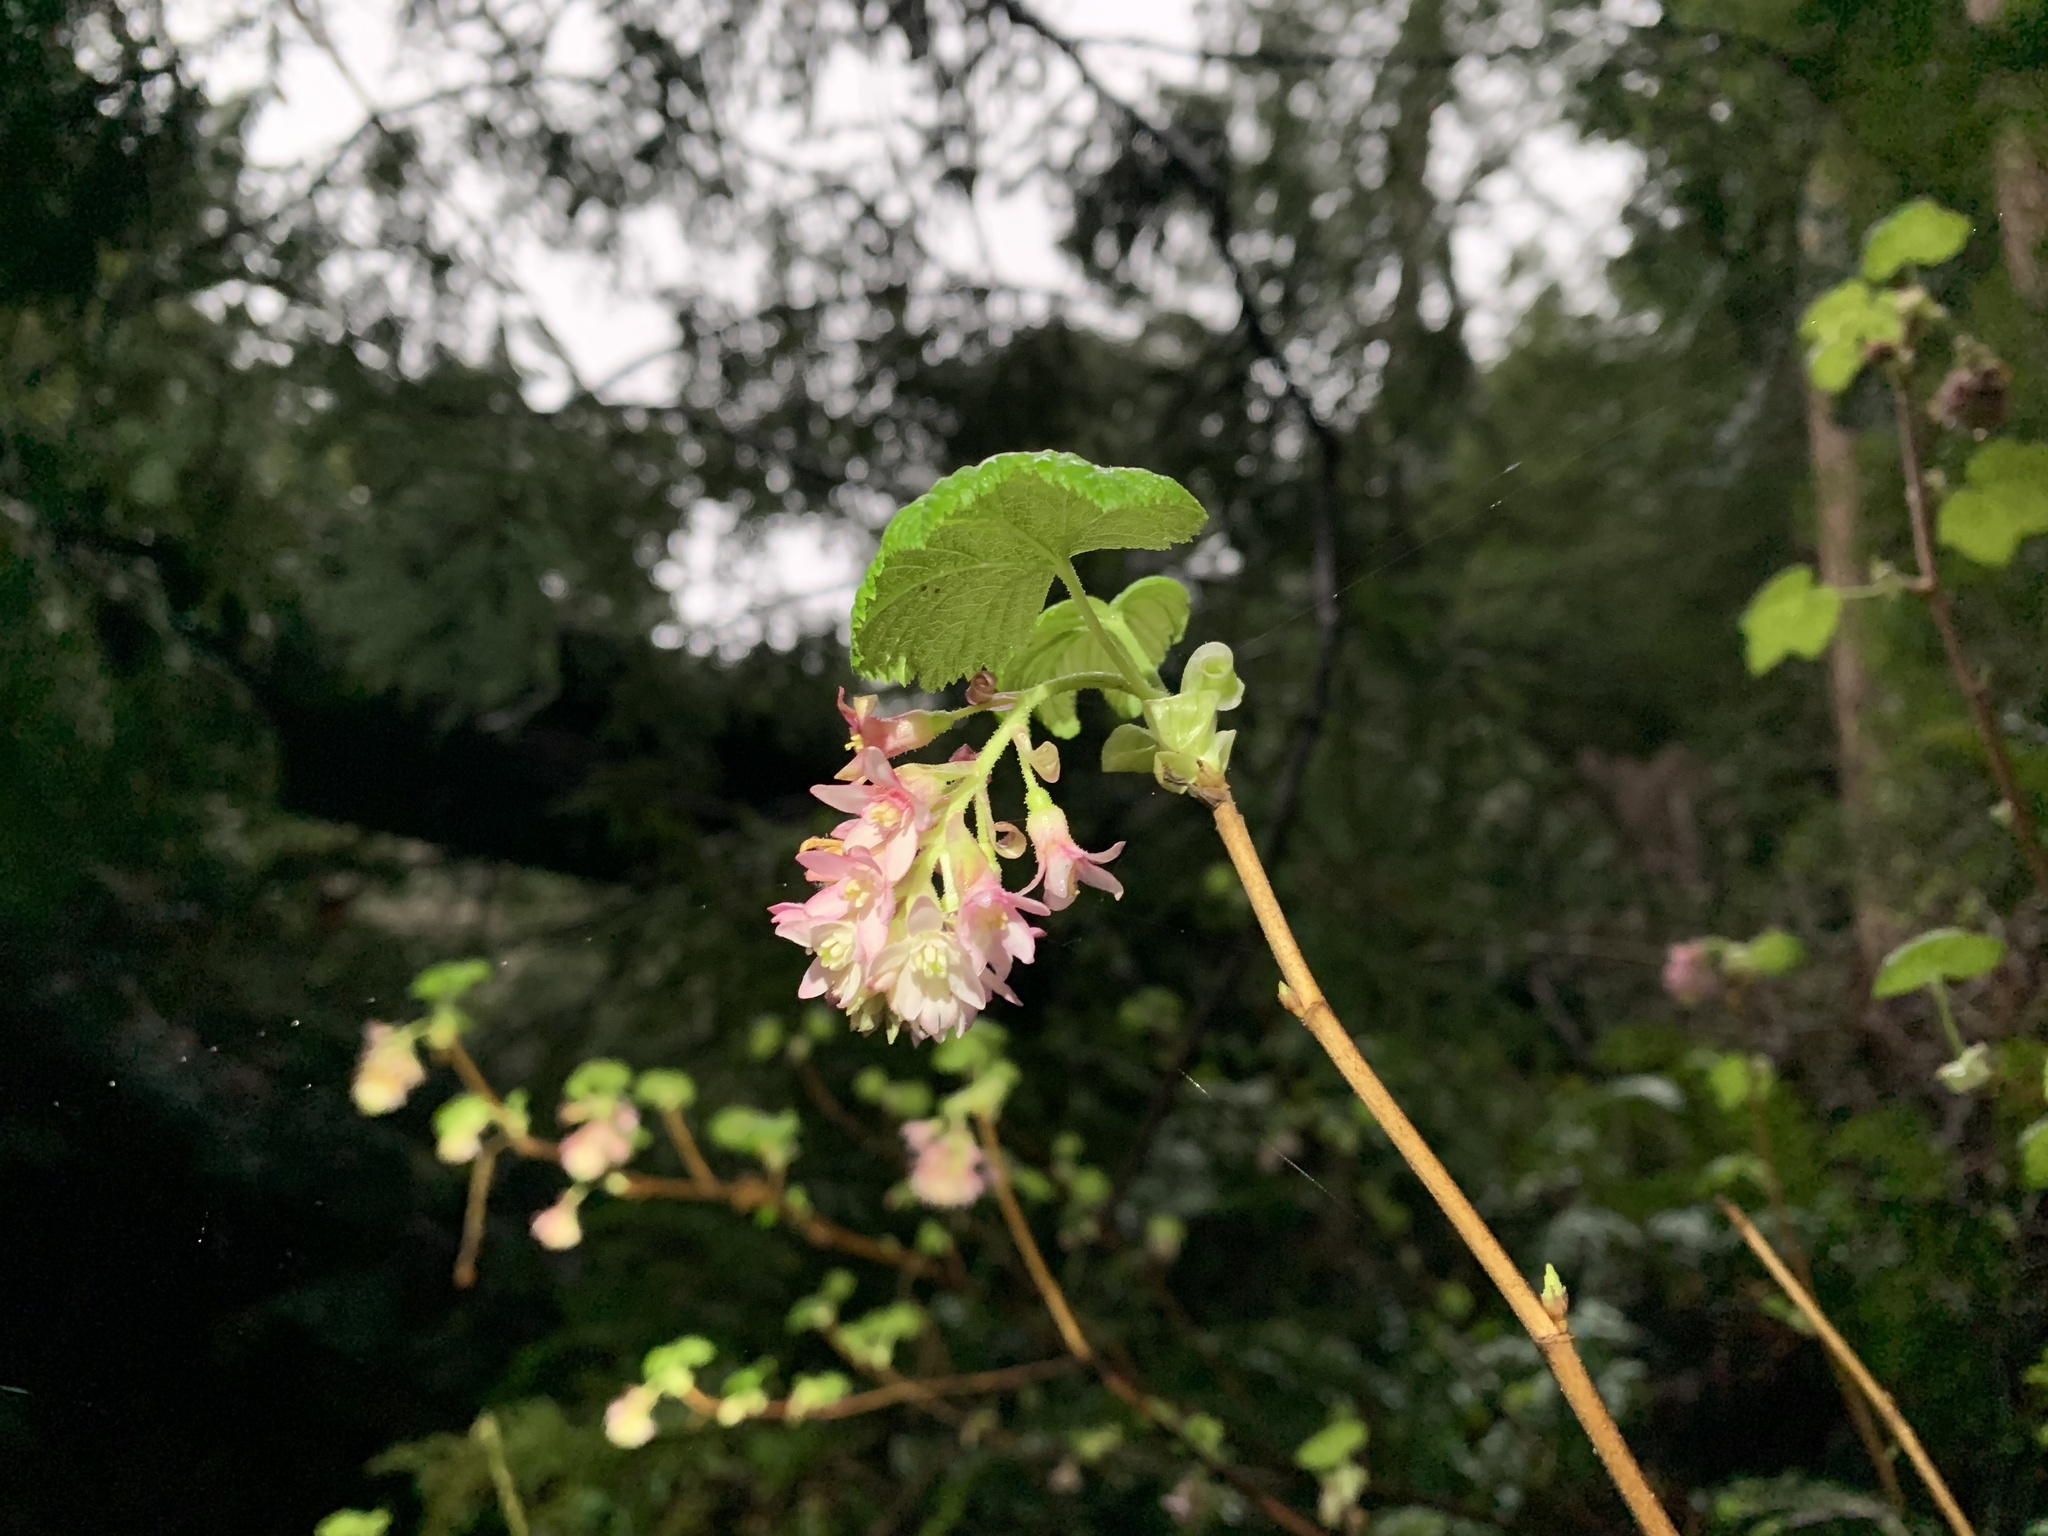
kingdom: Plantae
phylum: Tracheophyta
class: Magnoliopsida
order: Saxifragales
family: Grossulariaceae
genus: Ribes
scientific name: Ribes sanguineum
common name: Flowering currant
